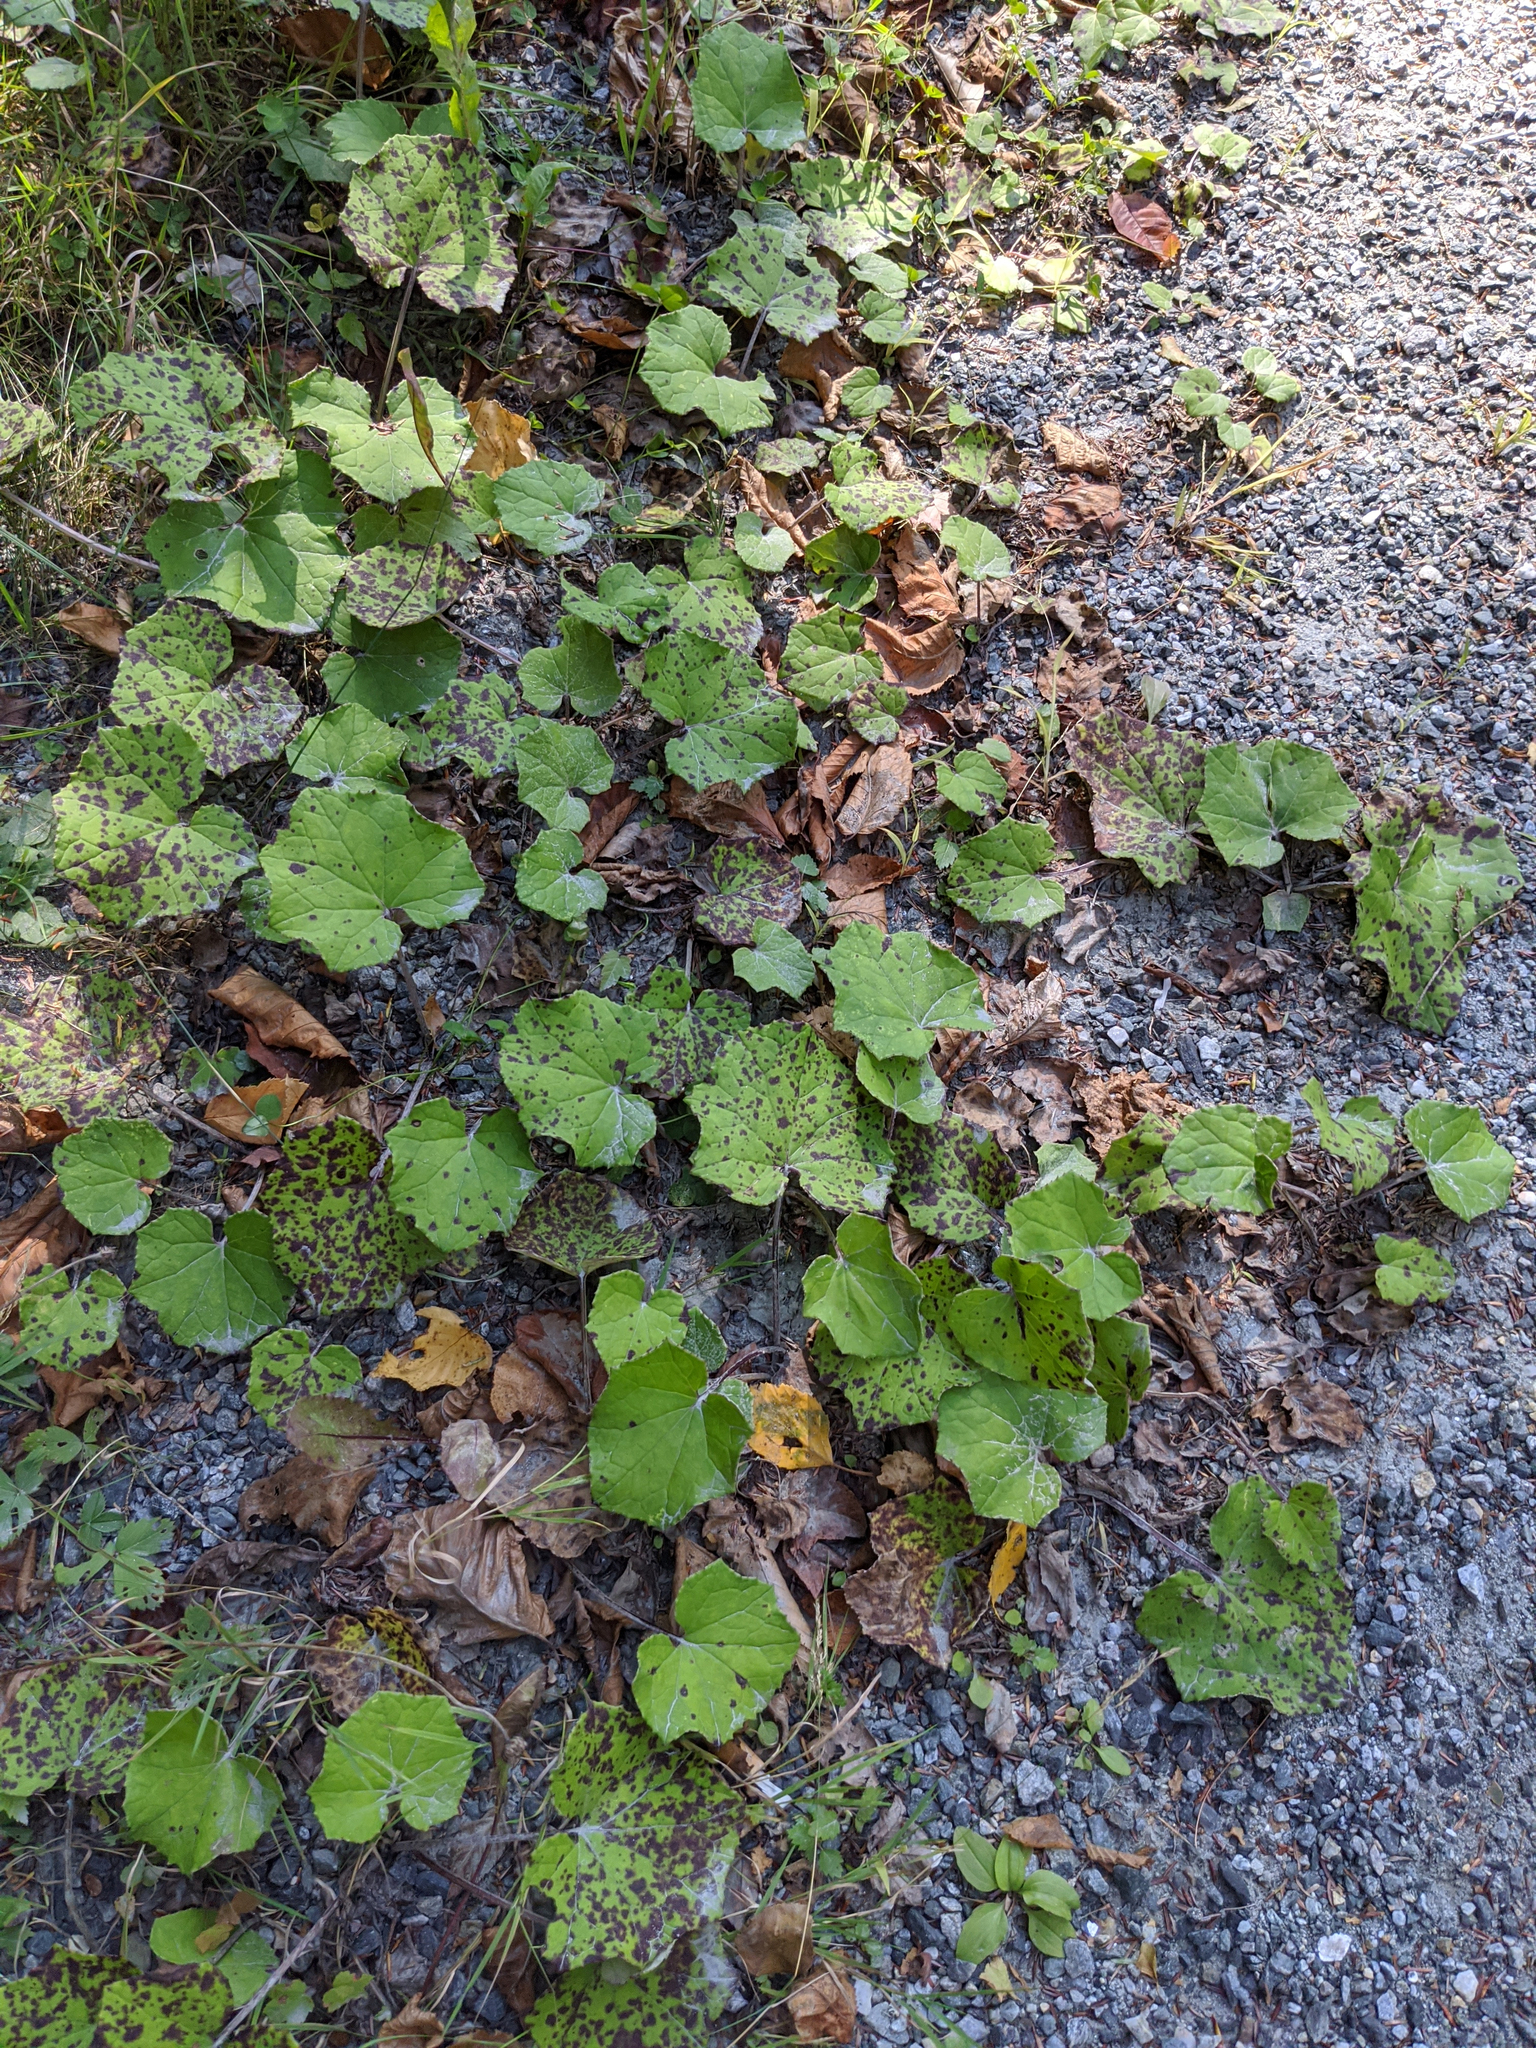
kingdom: Plantae
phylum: Tracheophyta
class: Magnoliopsida
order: Asterales
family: Asteraceae
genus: Tussilago
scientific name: Tussilago farfara
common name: Coltsfoot
